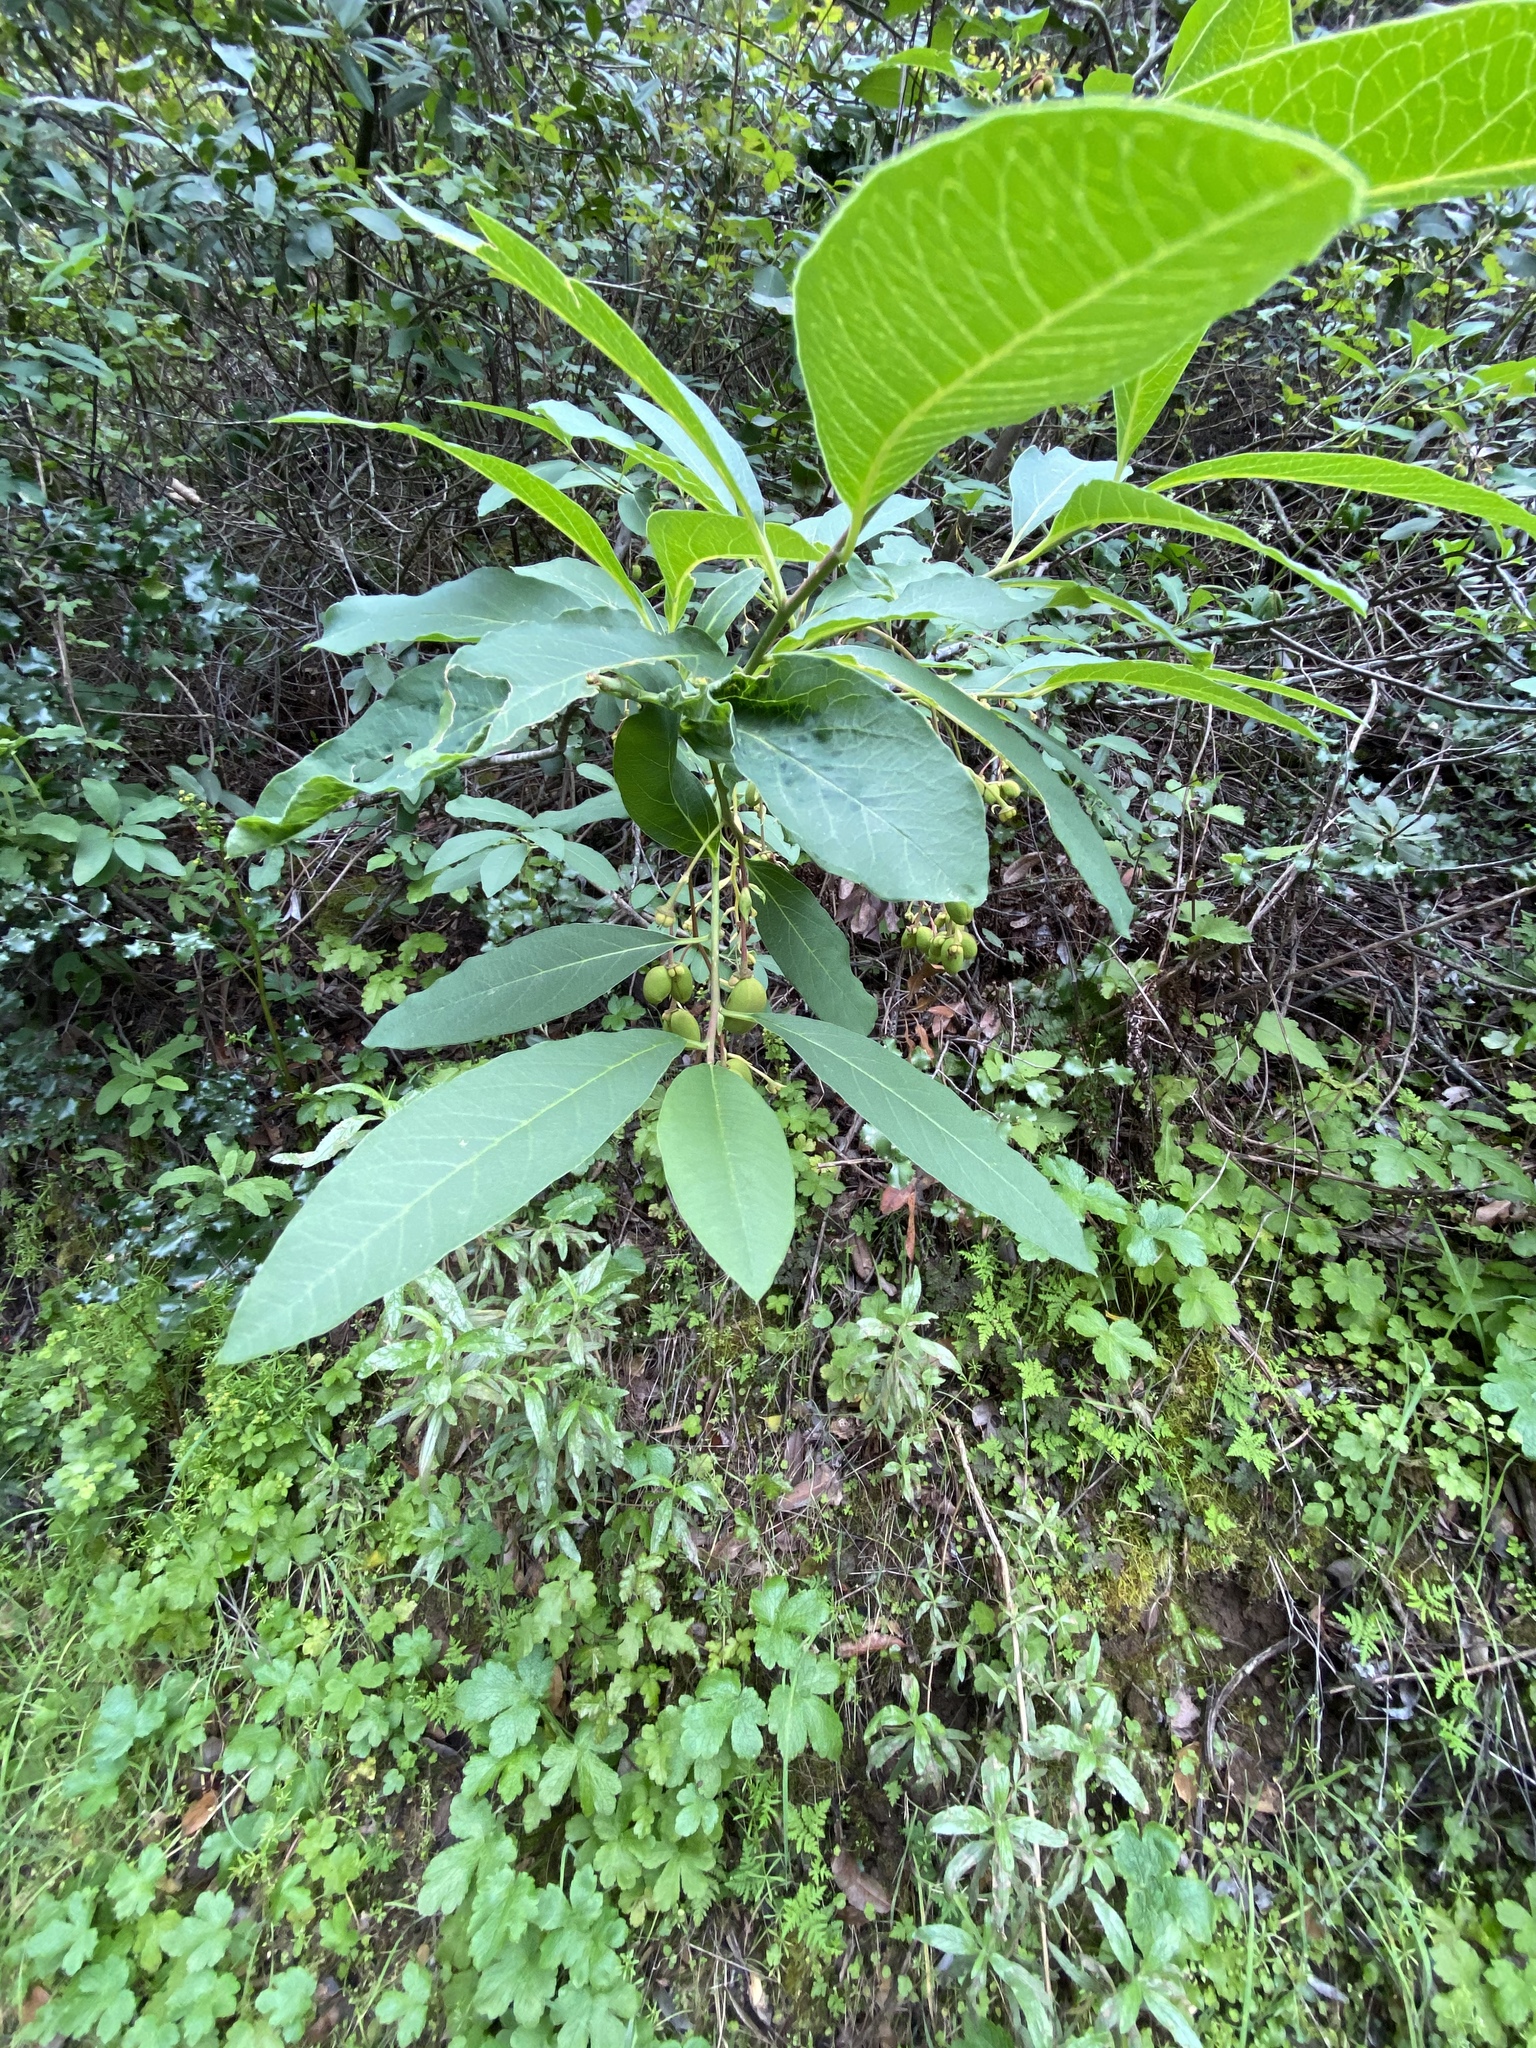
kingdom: Plantae
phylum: Tracheophyta
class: Magnoliopsida
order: Rosales
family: Rosaceae
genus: Oemleria
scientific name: Oemleria cerasiformis
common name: Osoberry
